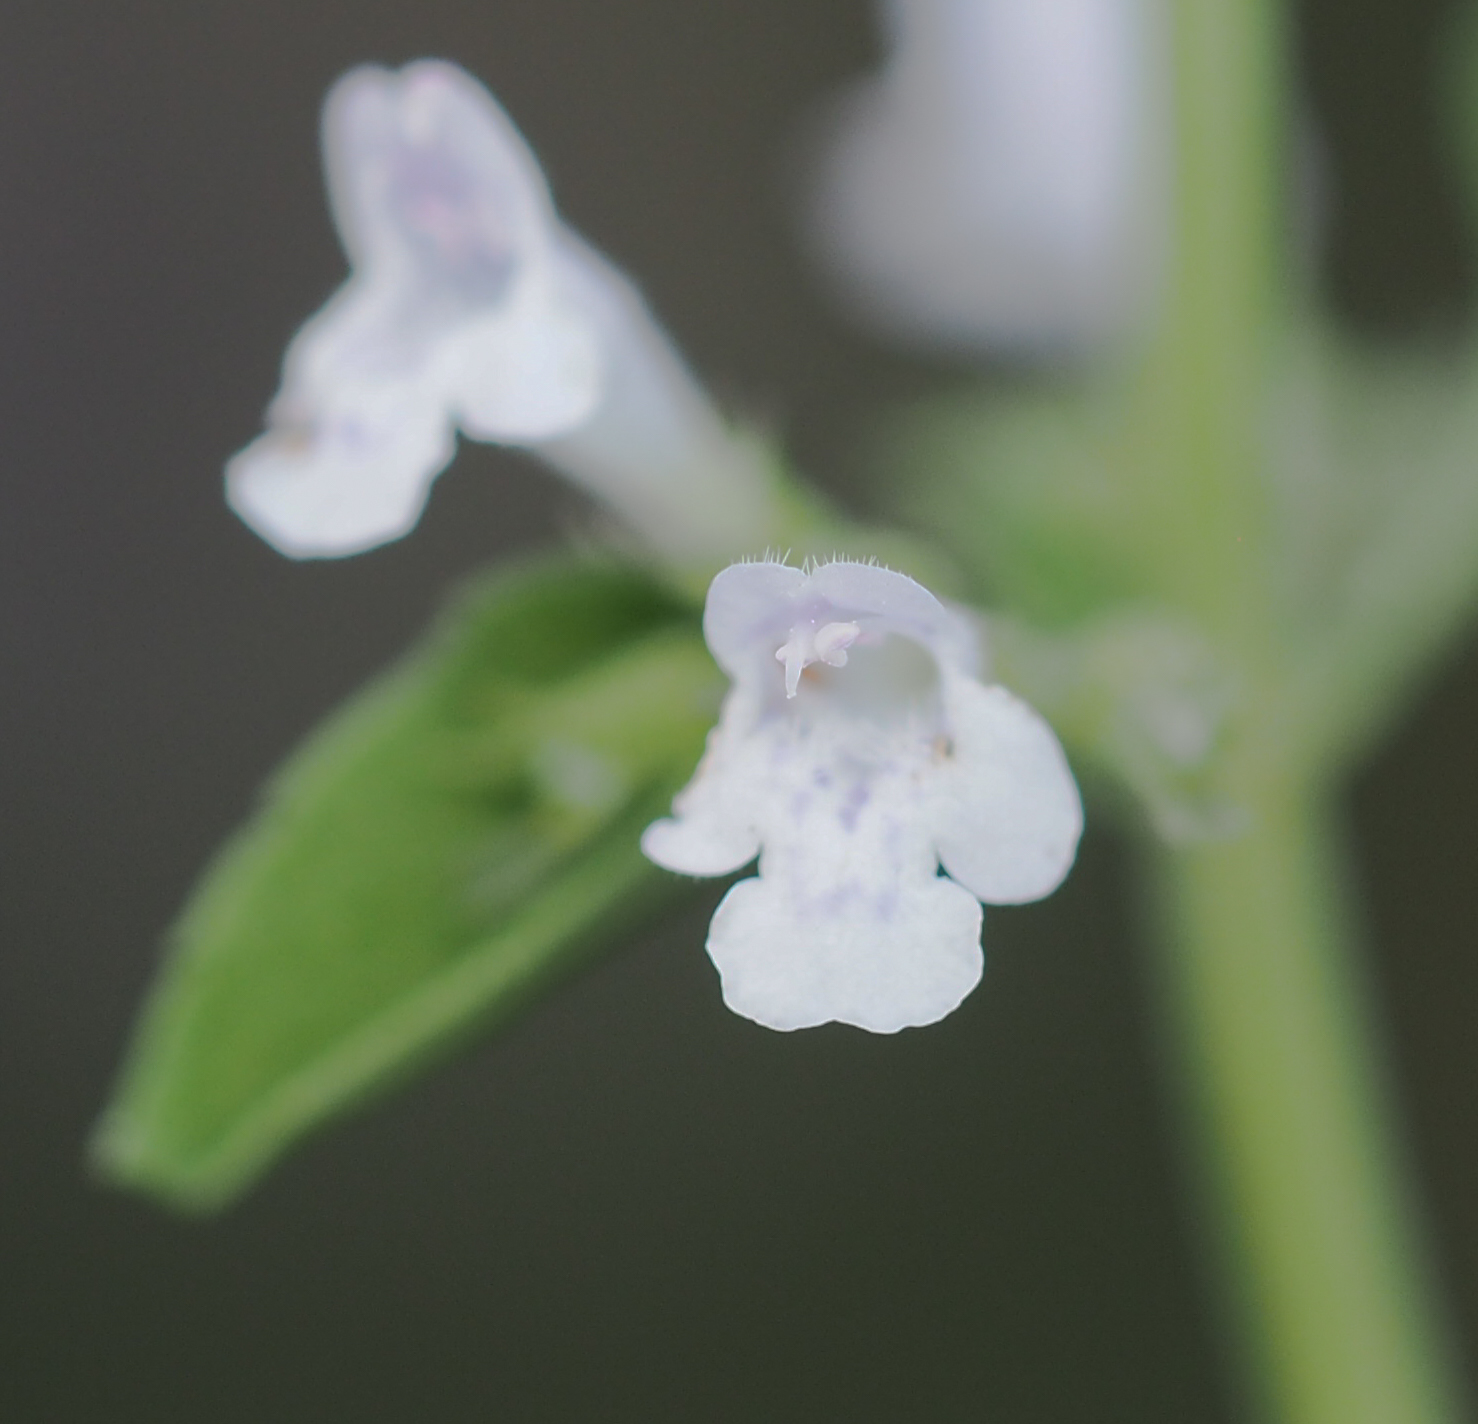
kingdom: Plantae
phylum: Tracheophyta
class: Magnoliopsida
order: Lamiales
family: Lamiaceae
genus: Clinopodium
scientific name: Clinopodium nepeta
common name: Lesser calamint
